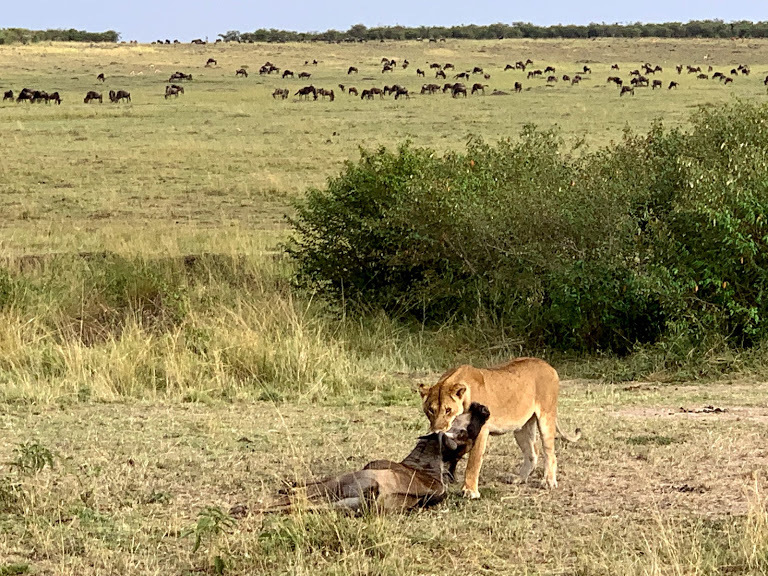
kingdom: Animalia
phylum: Chordata
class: Mammalia
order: Carnivora
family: Felidae
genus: Panthera
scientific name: Panthera leo
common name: Lion
